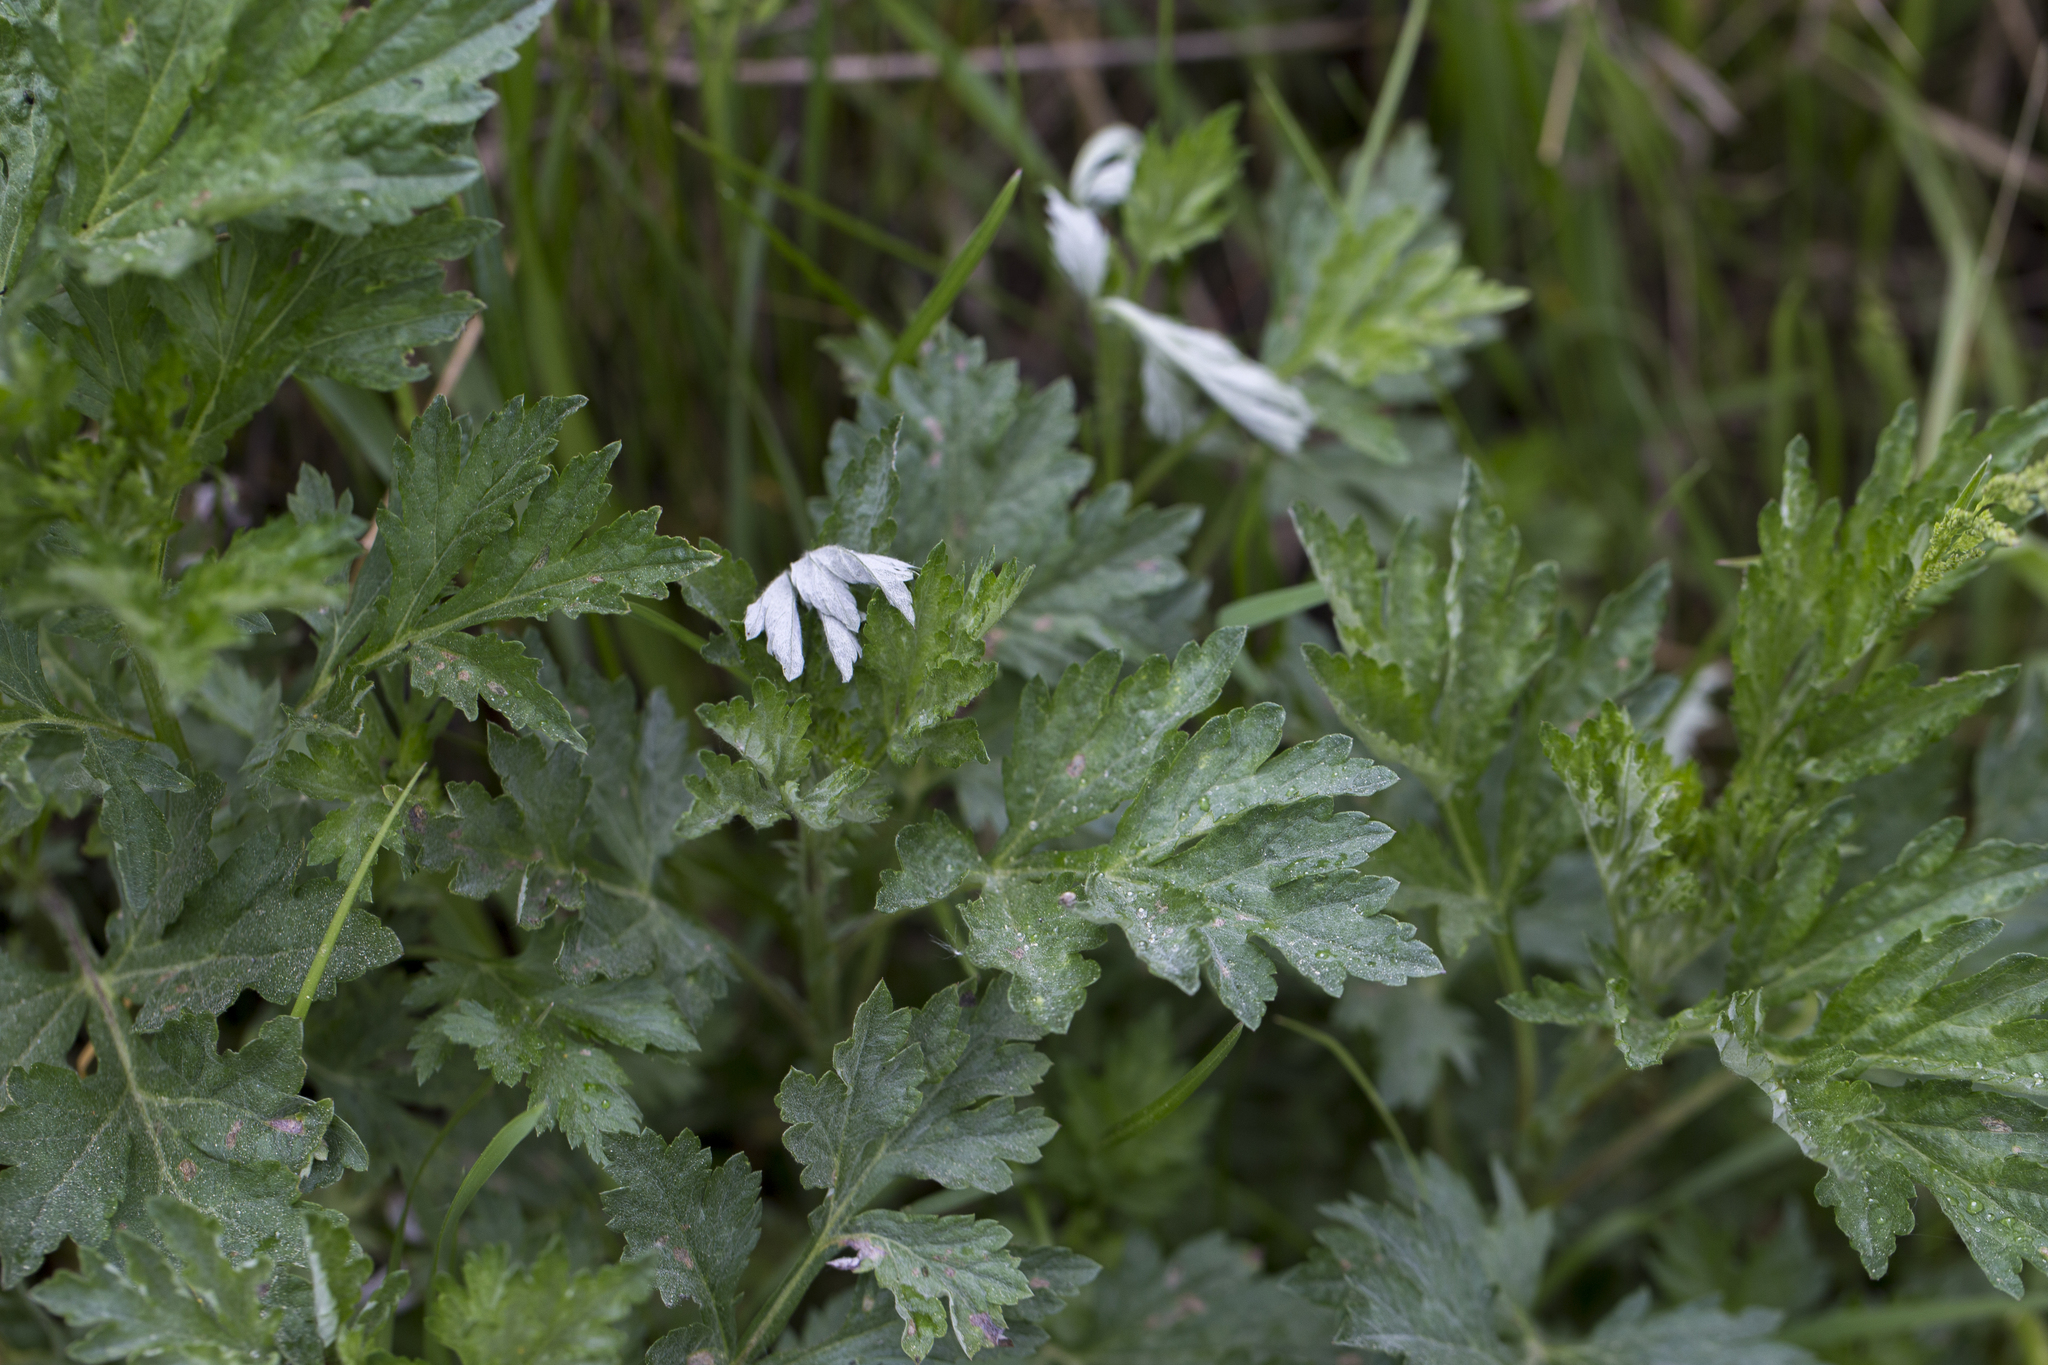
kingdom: Plantae
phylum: Tracheophyta
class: Magnoliopsida
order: Asterales
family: Asteraceae
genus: Artemisia
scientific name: Artemisia vulgaris
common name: Mugwort
